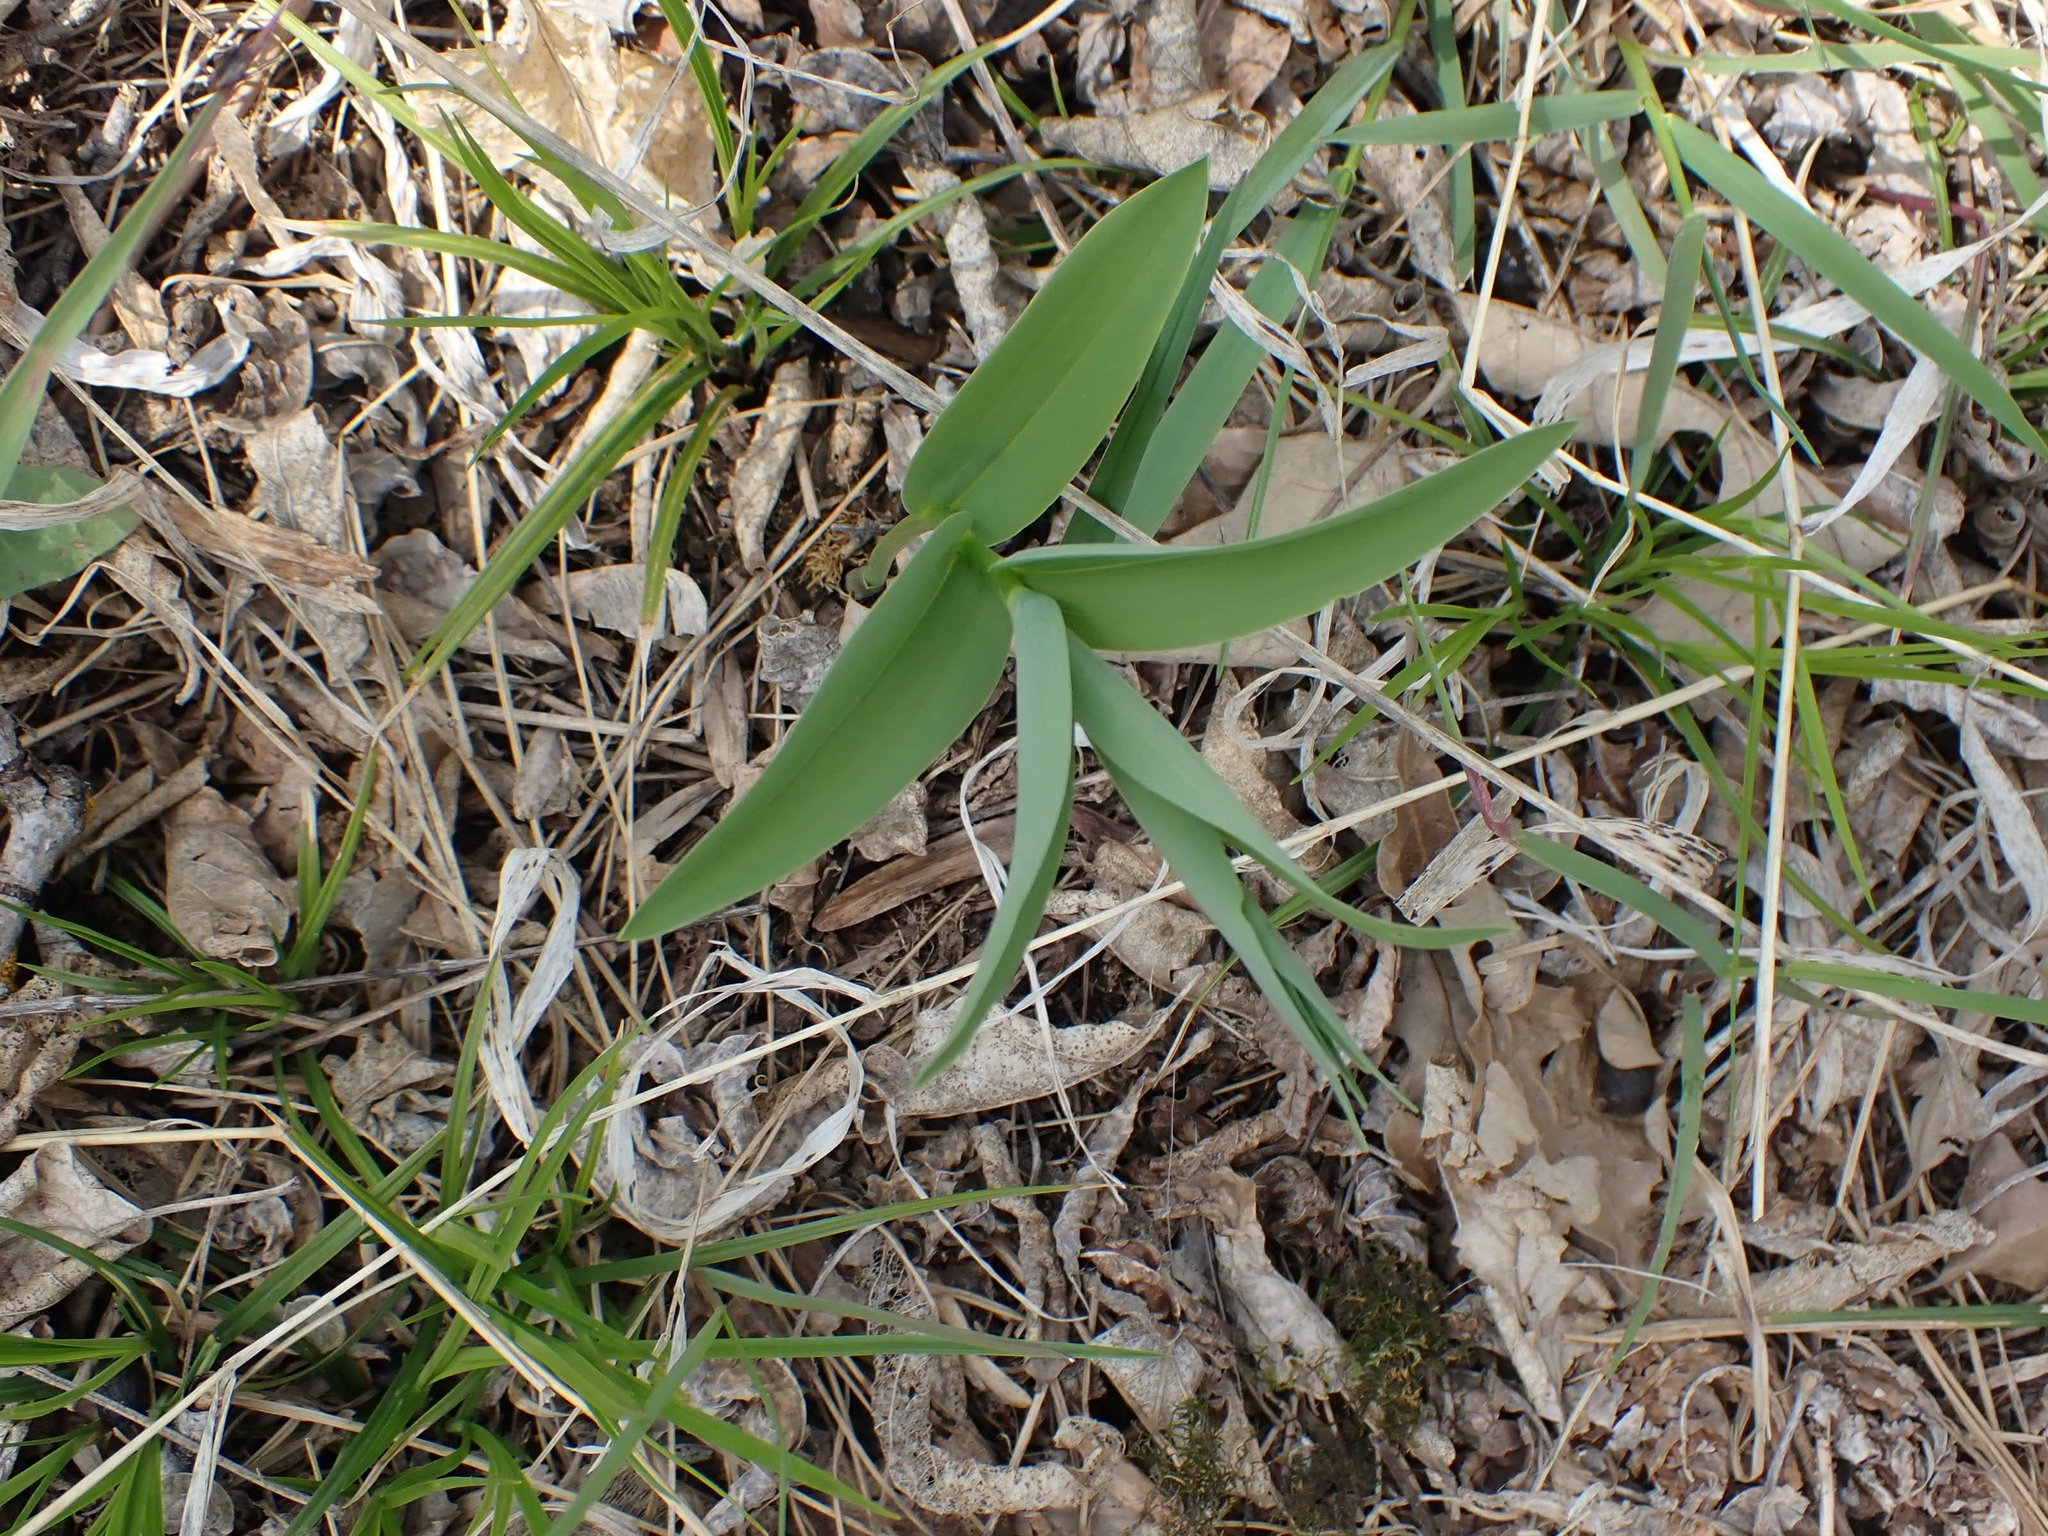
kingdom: Plantae
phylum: Tracheophyta
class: Liliopsida
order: Asparagales
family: Asparagaceae
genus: Maianthemum
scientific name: Maianthemum stellatum
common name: Little false solomon's seal
